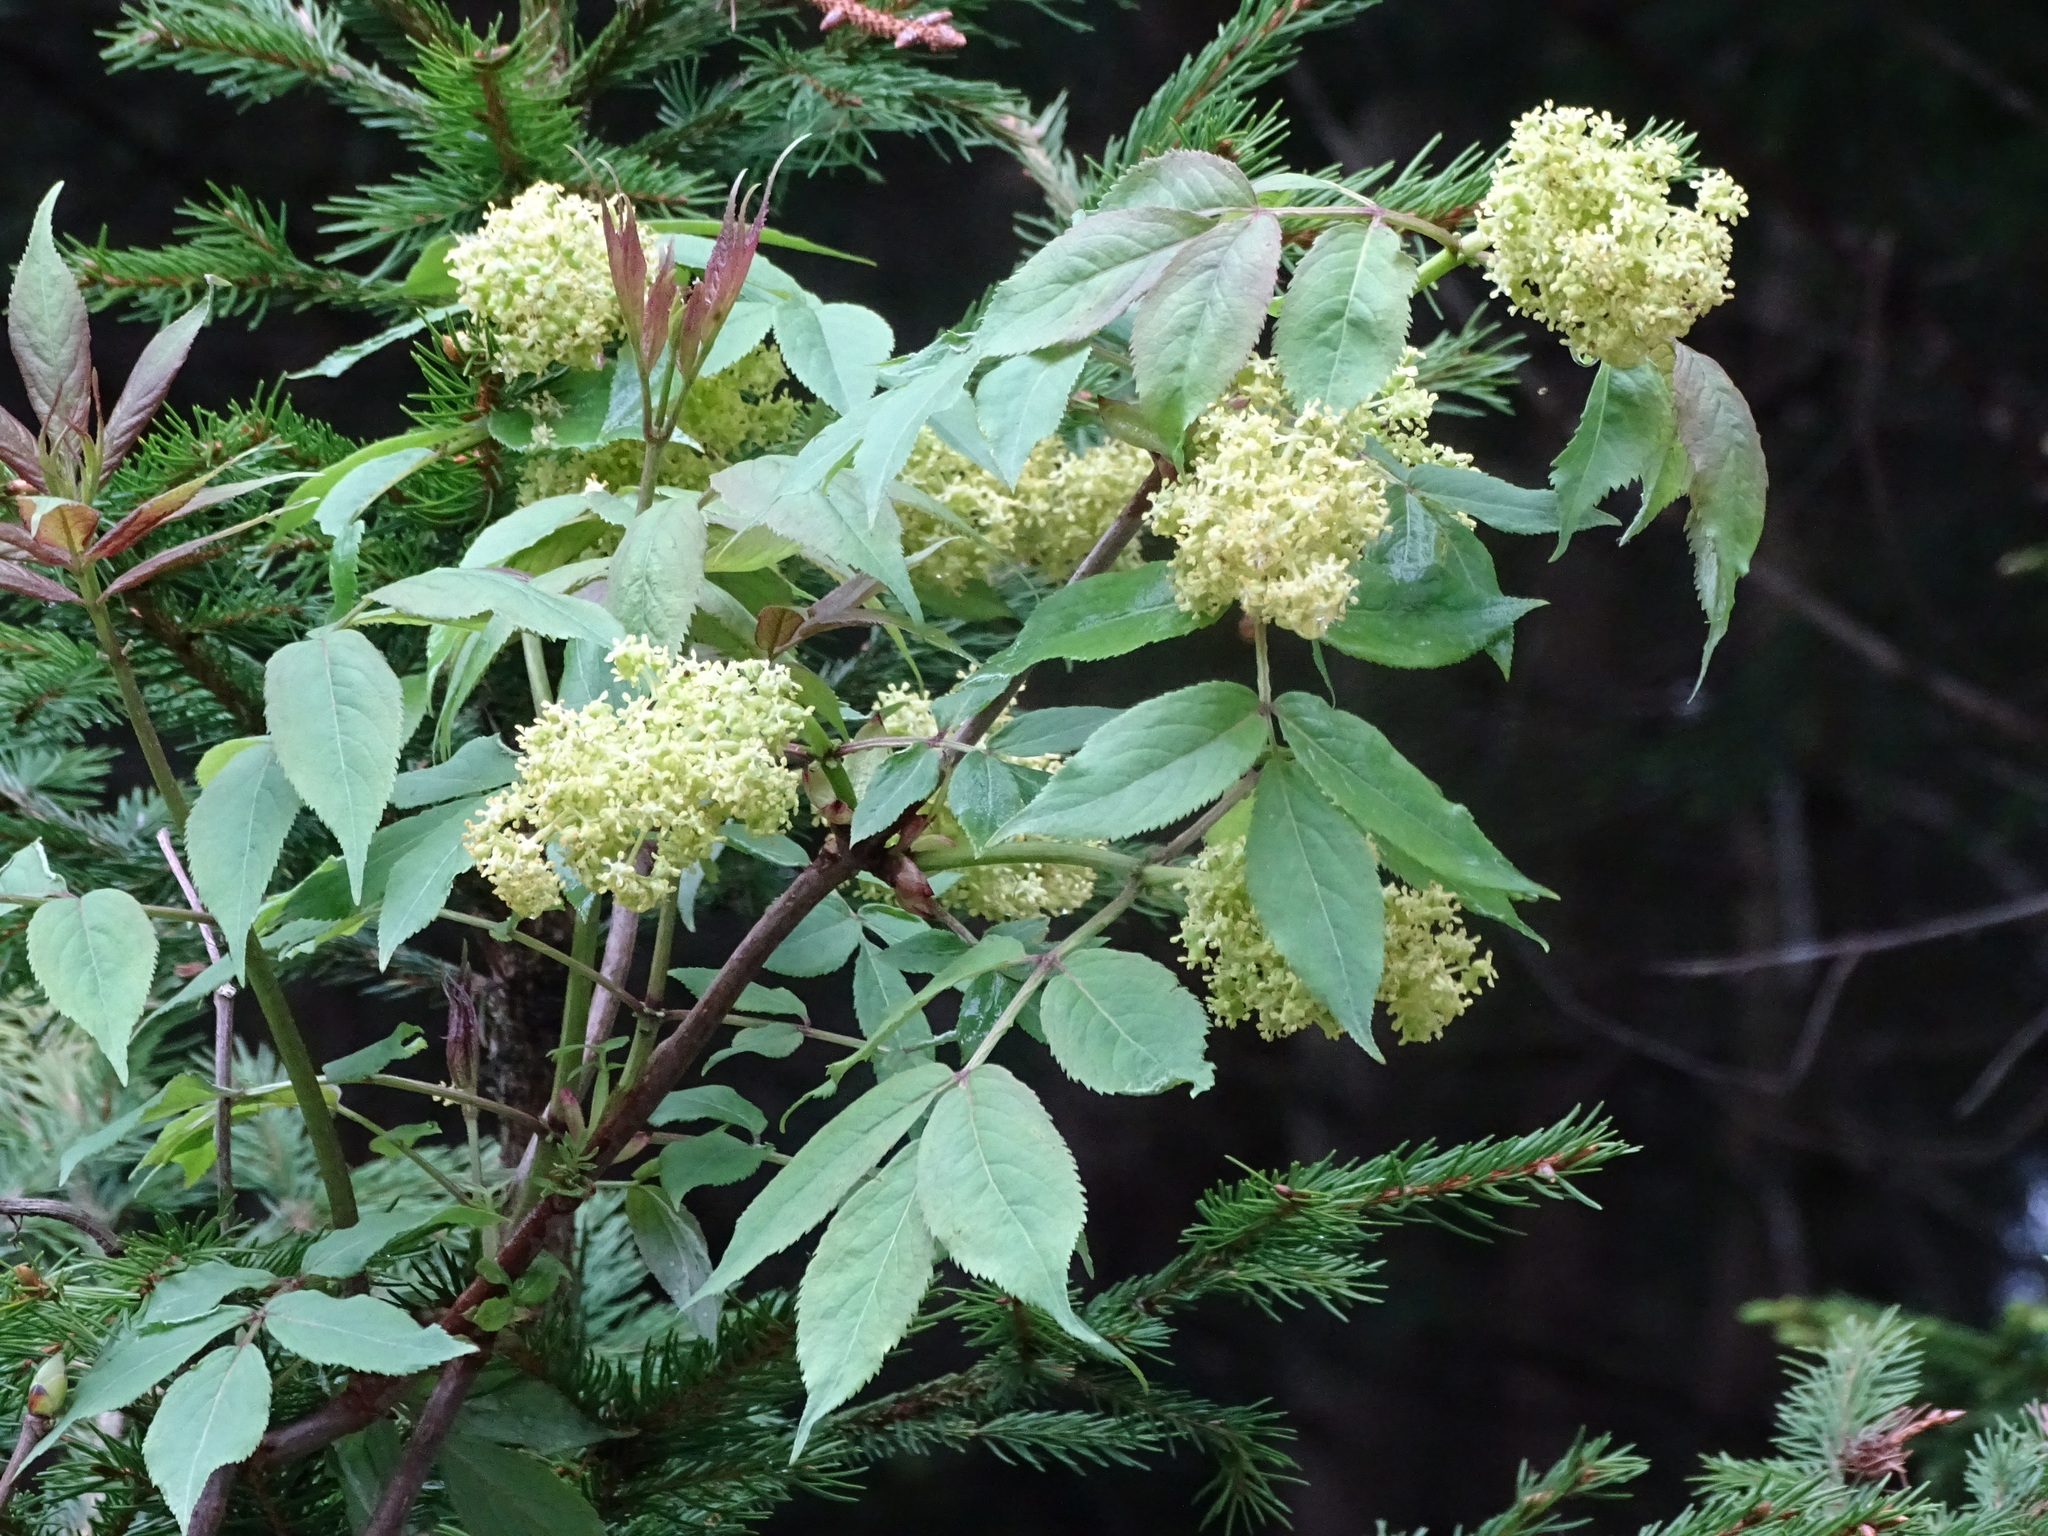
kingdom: Plantae
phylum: Tracheophyta
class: Magnoliopsida
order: Dipsacales
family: Viburnaceae
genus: Sambucus
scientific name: Sambucus racemosa
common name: Red-berried elder
